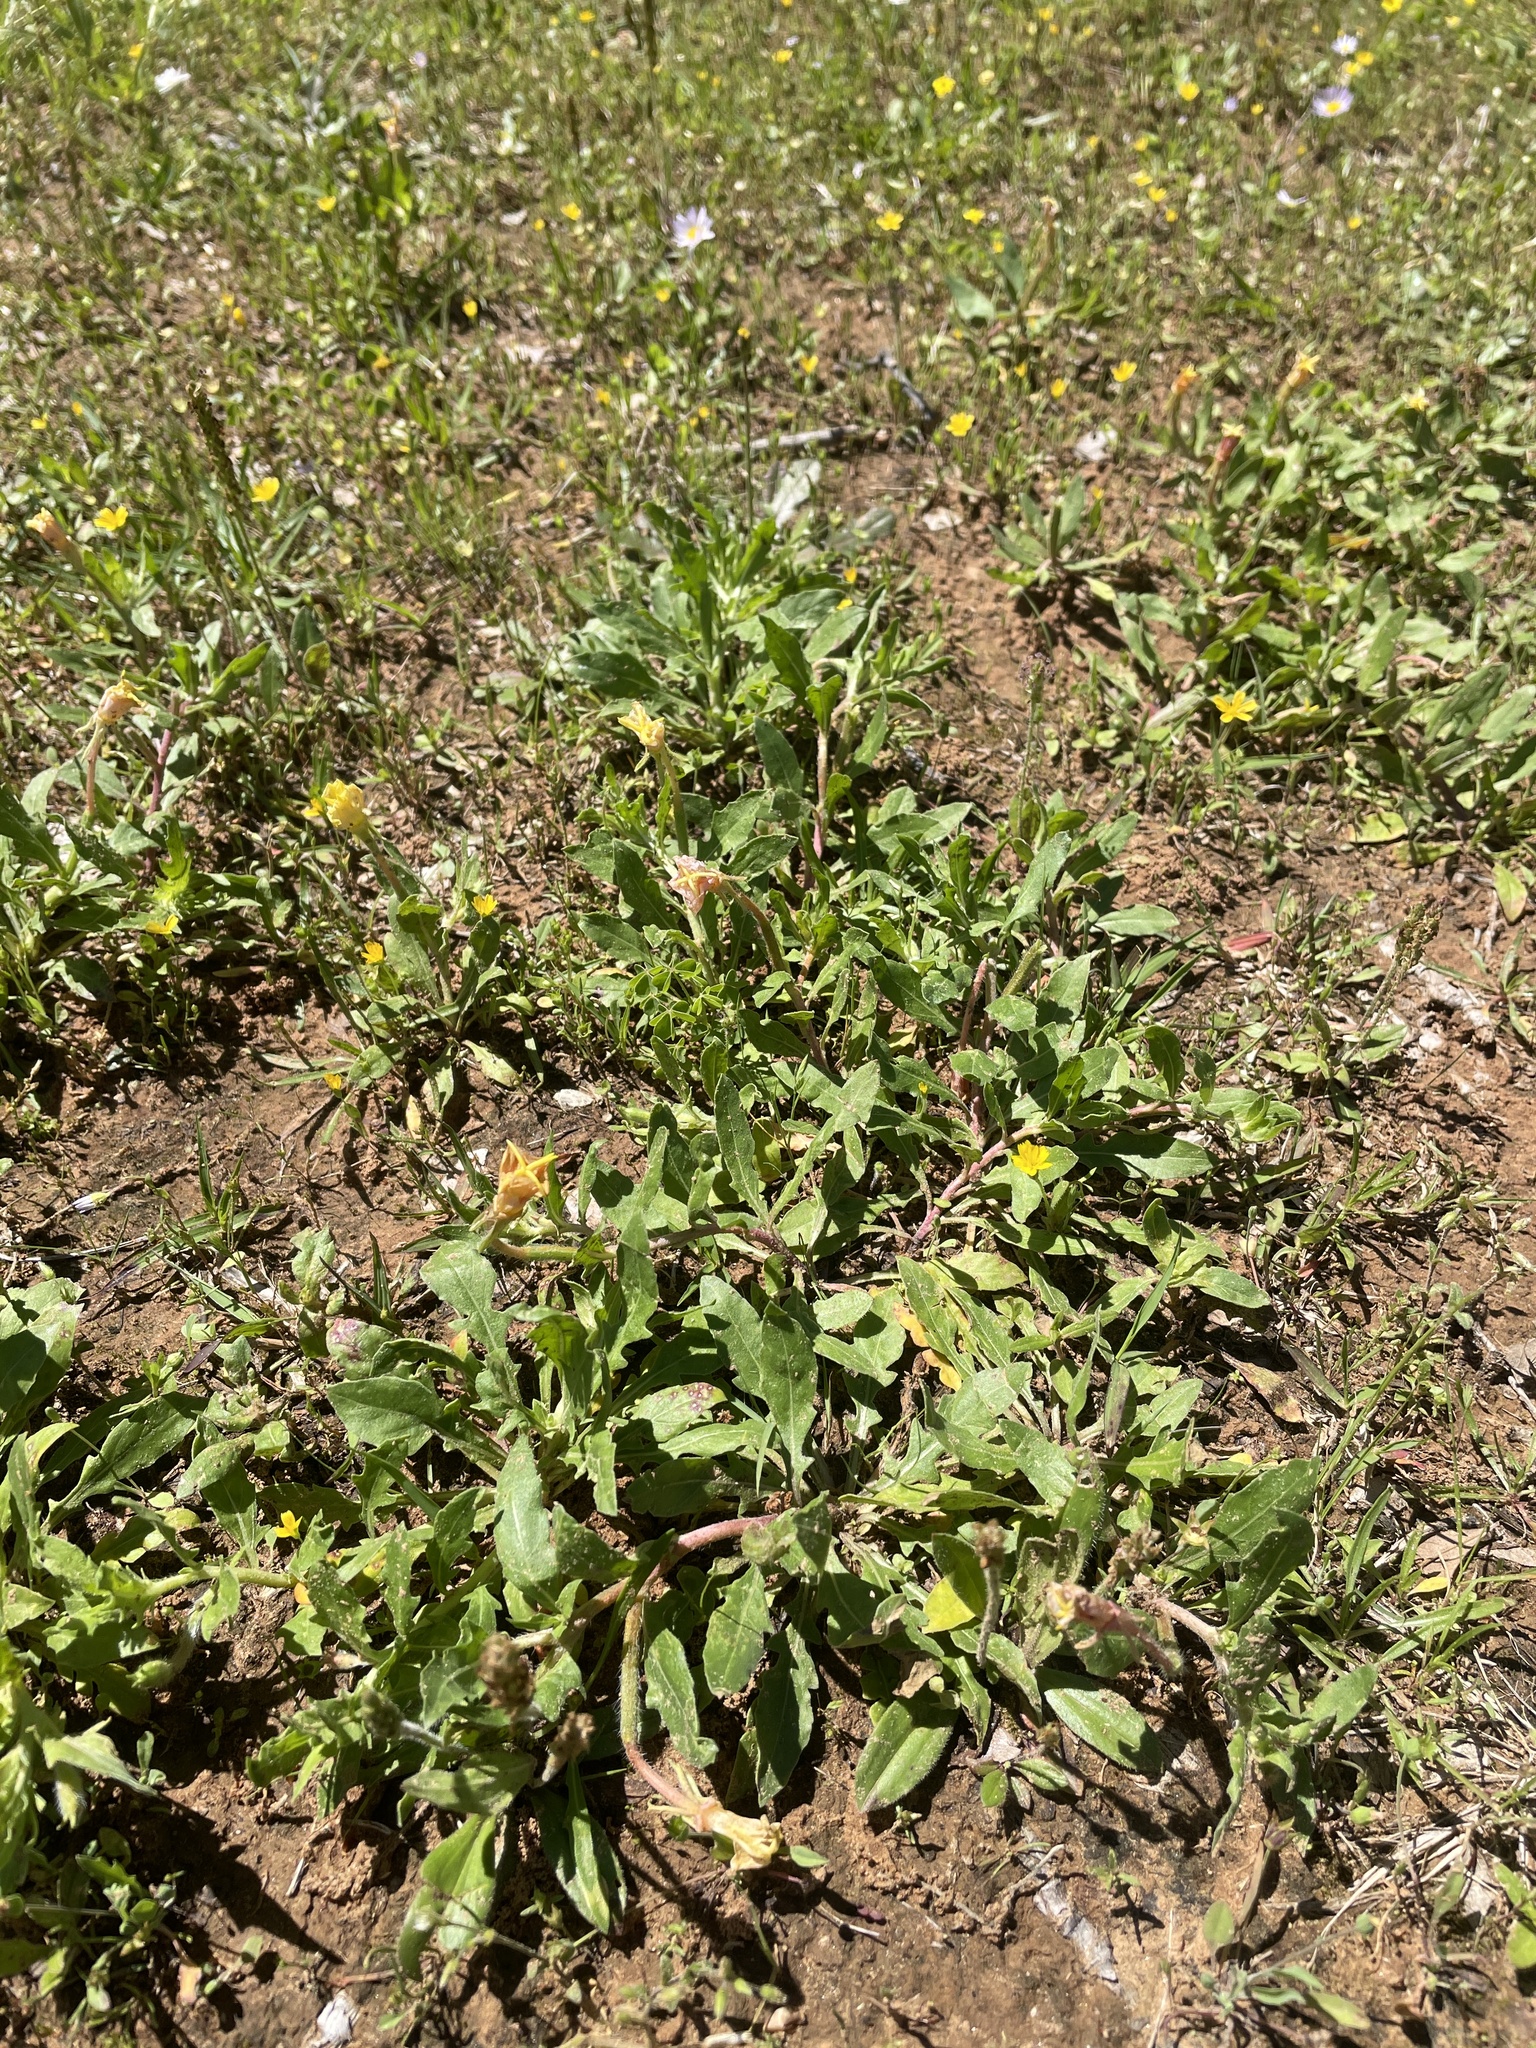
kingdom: Plantae
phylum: Tracheophyta
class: Magnoliopsida
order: Myrtales
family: Onagraceae
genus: Oenothera
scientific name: Oenothera laciniata
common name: Cut-leaved evening-primrose
